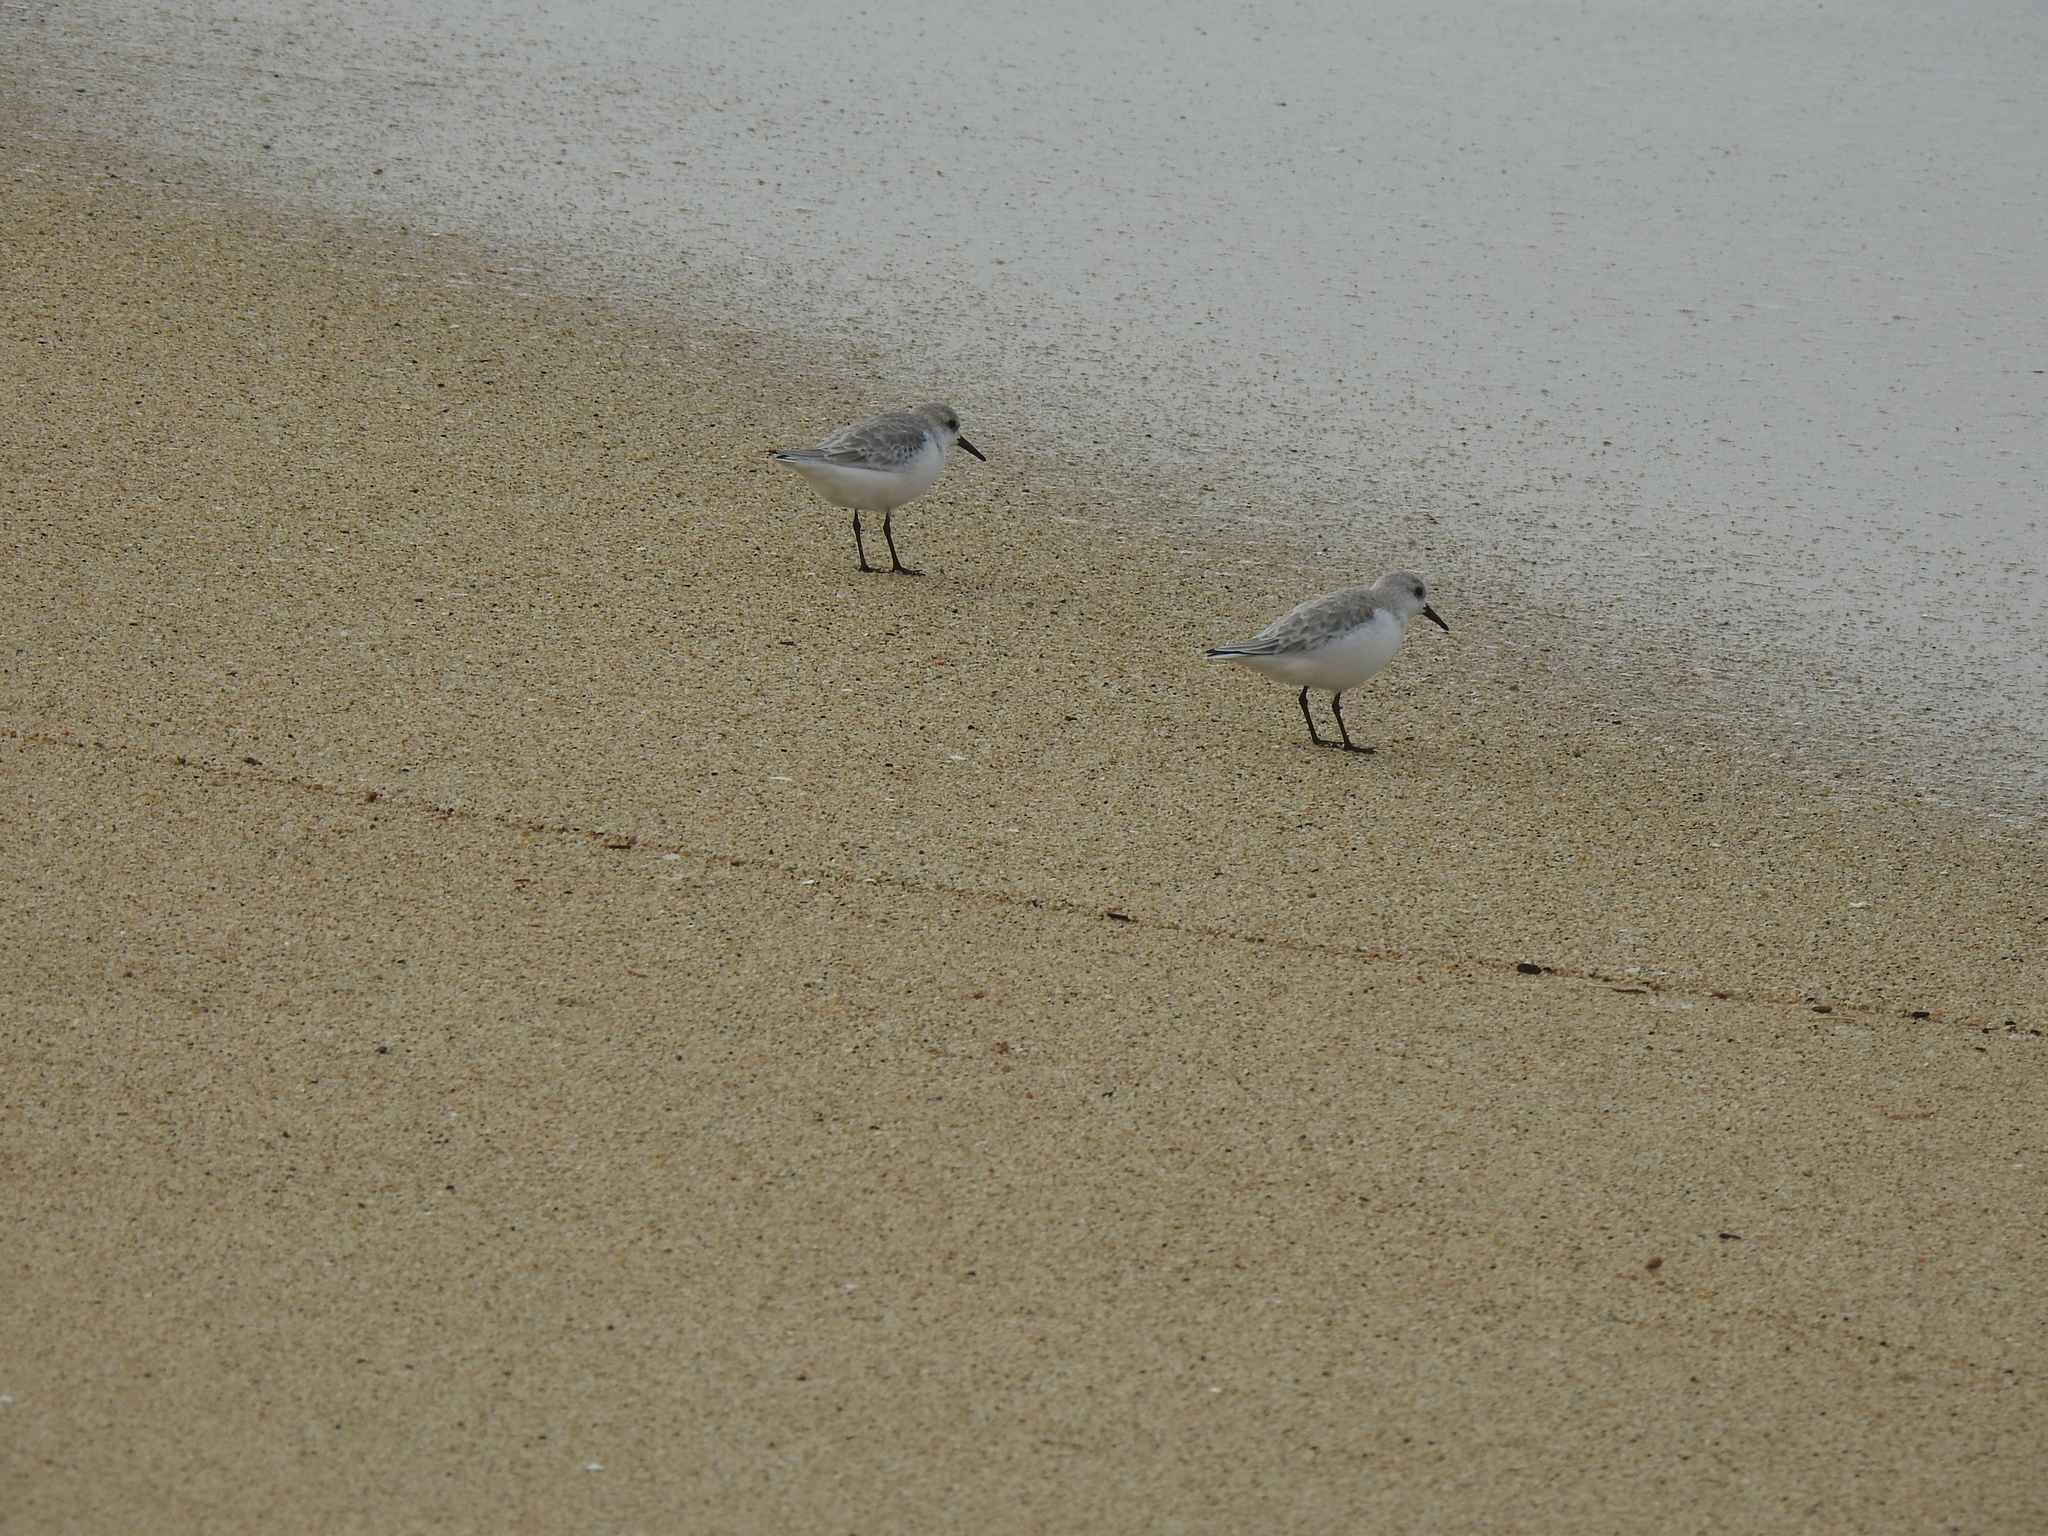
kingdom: Animalia
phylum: Chordata
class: Aves
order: Charadriiformes
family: Scolopacidae
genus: Calidris
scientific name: Calidris alba
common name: Sanderling
